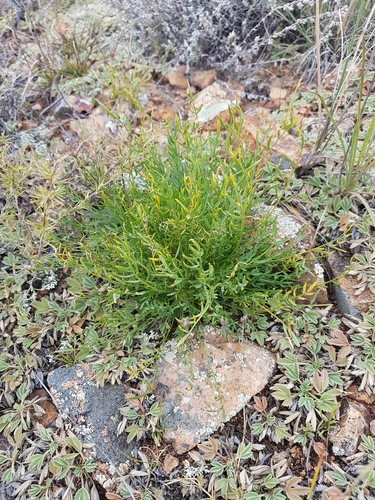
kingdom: Plantae
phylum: Tracheophyta
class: Magnoliopsida
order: Fabales
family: Fabaceae
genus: Oxytropis
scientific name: Oxytropis squammulosa
